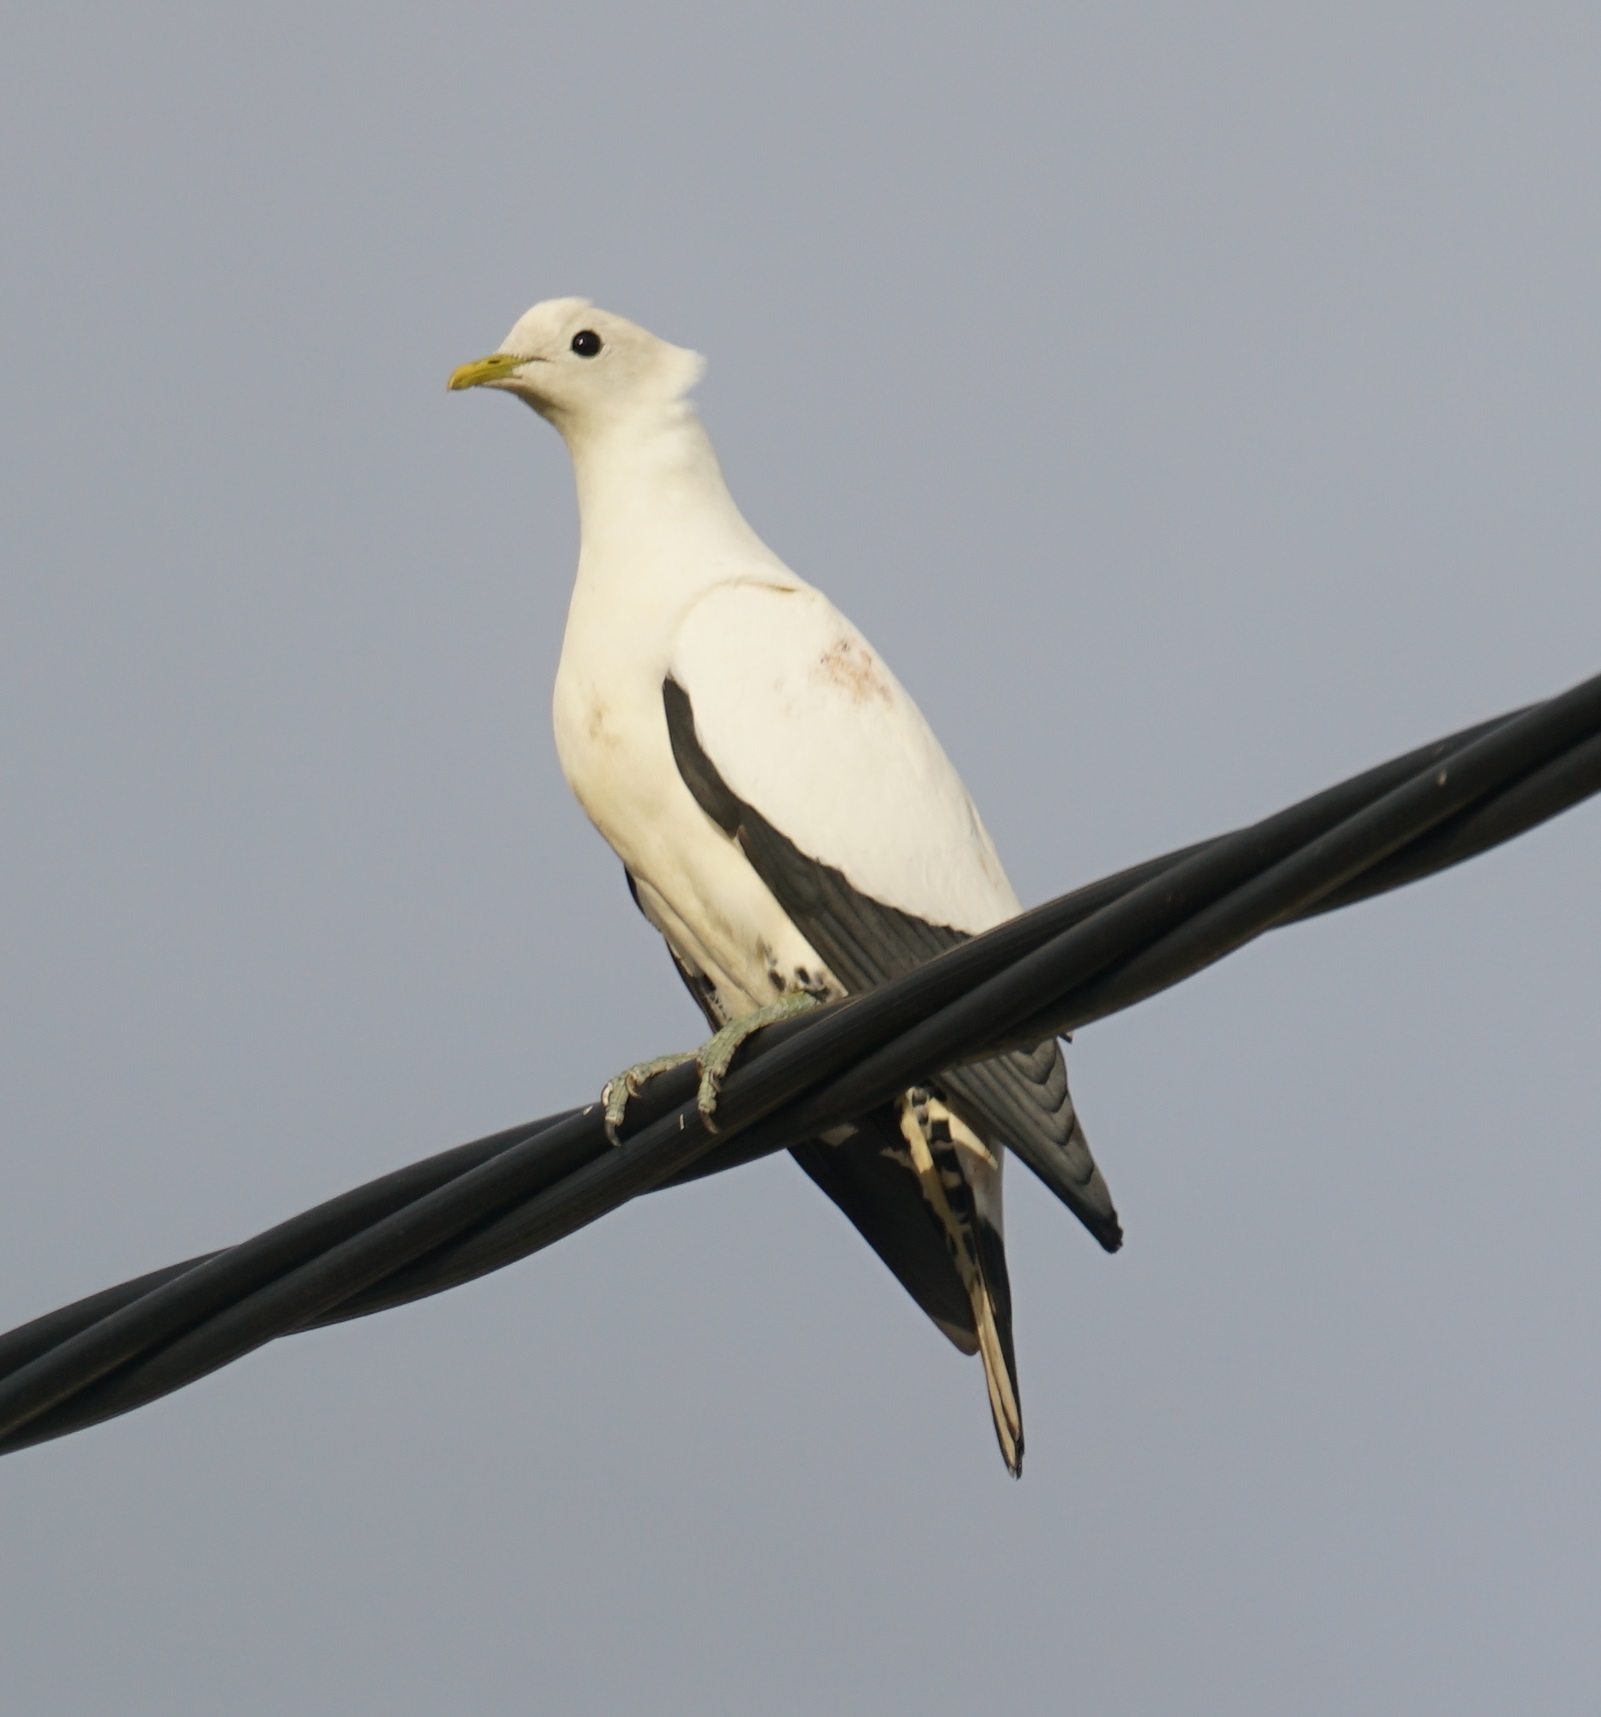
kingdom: Animalia
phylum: Chordata
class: Aves
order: Columbiformes
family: Columbidae
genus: Ducula
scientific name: Ducula spilorrhoa
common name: Torresian imperial pigeon
